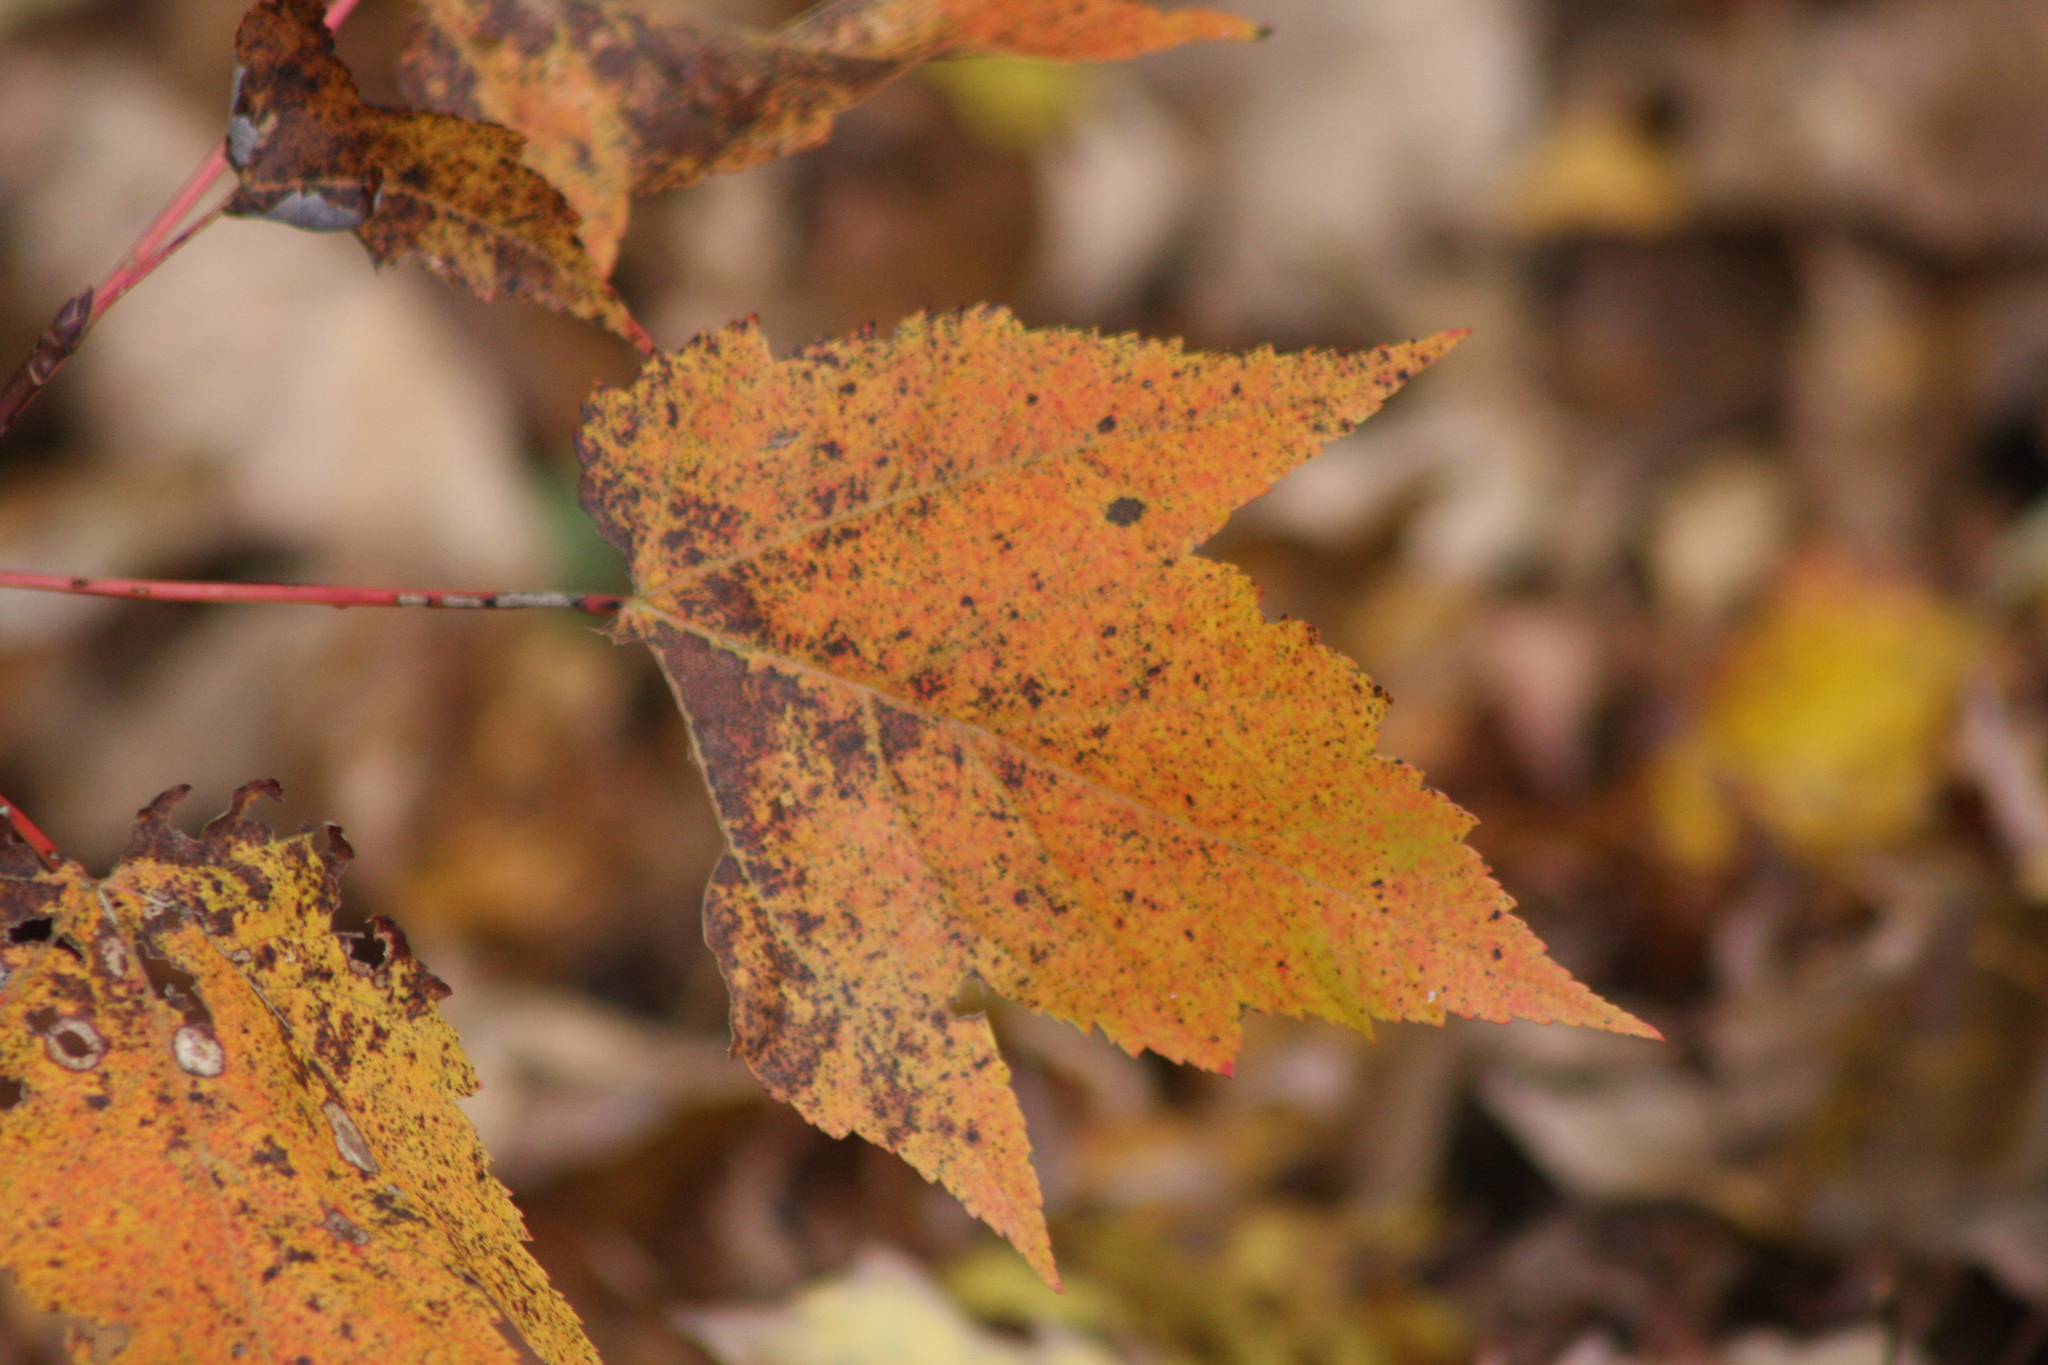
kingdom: Plantae
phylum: Tracheophyta
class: Magnoliopsida
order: Sapindales
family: Sapindaceae
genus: Acer
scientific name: Acer rubrum
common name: Red maple
